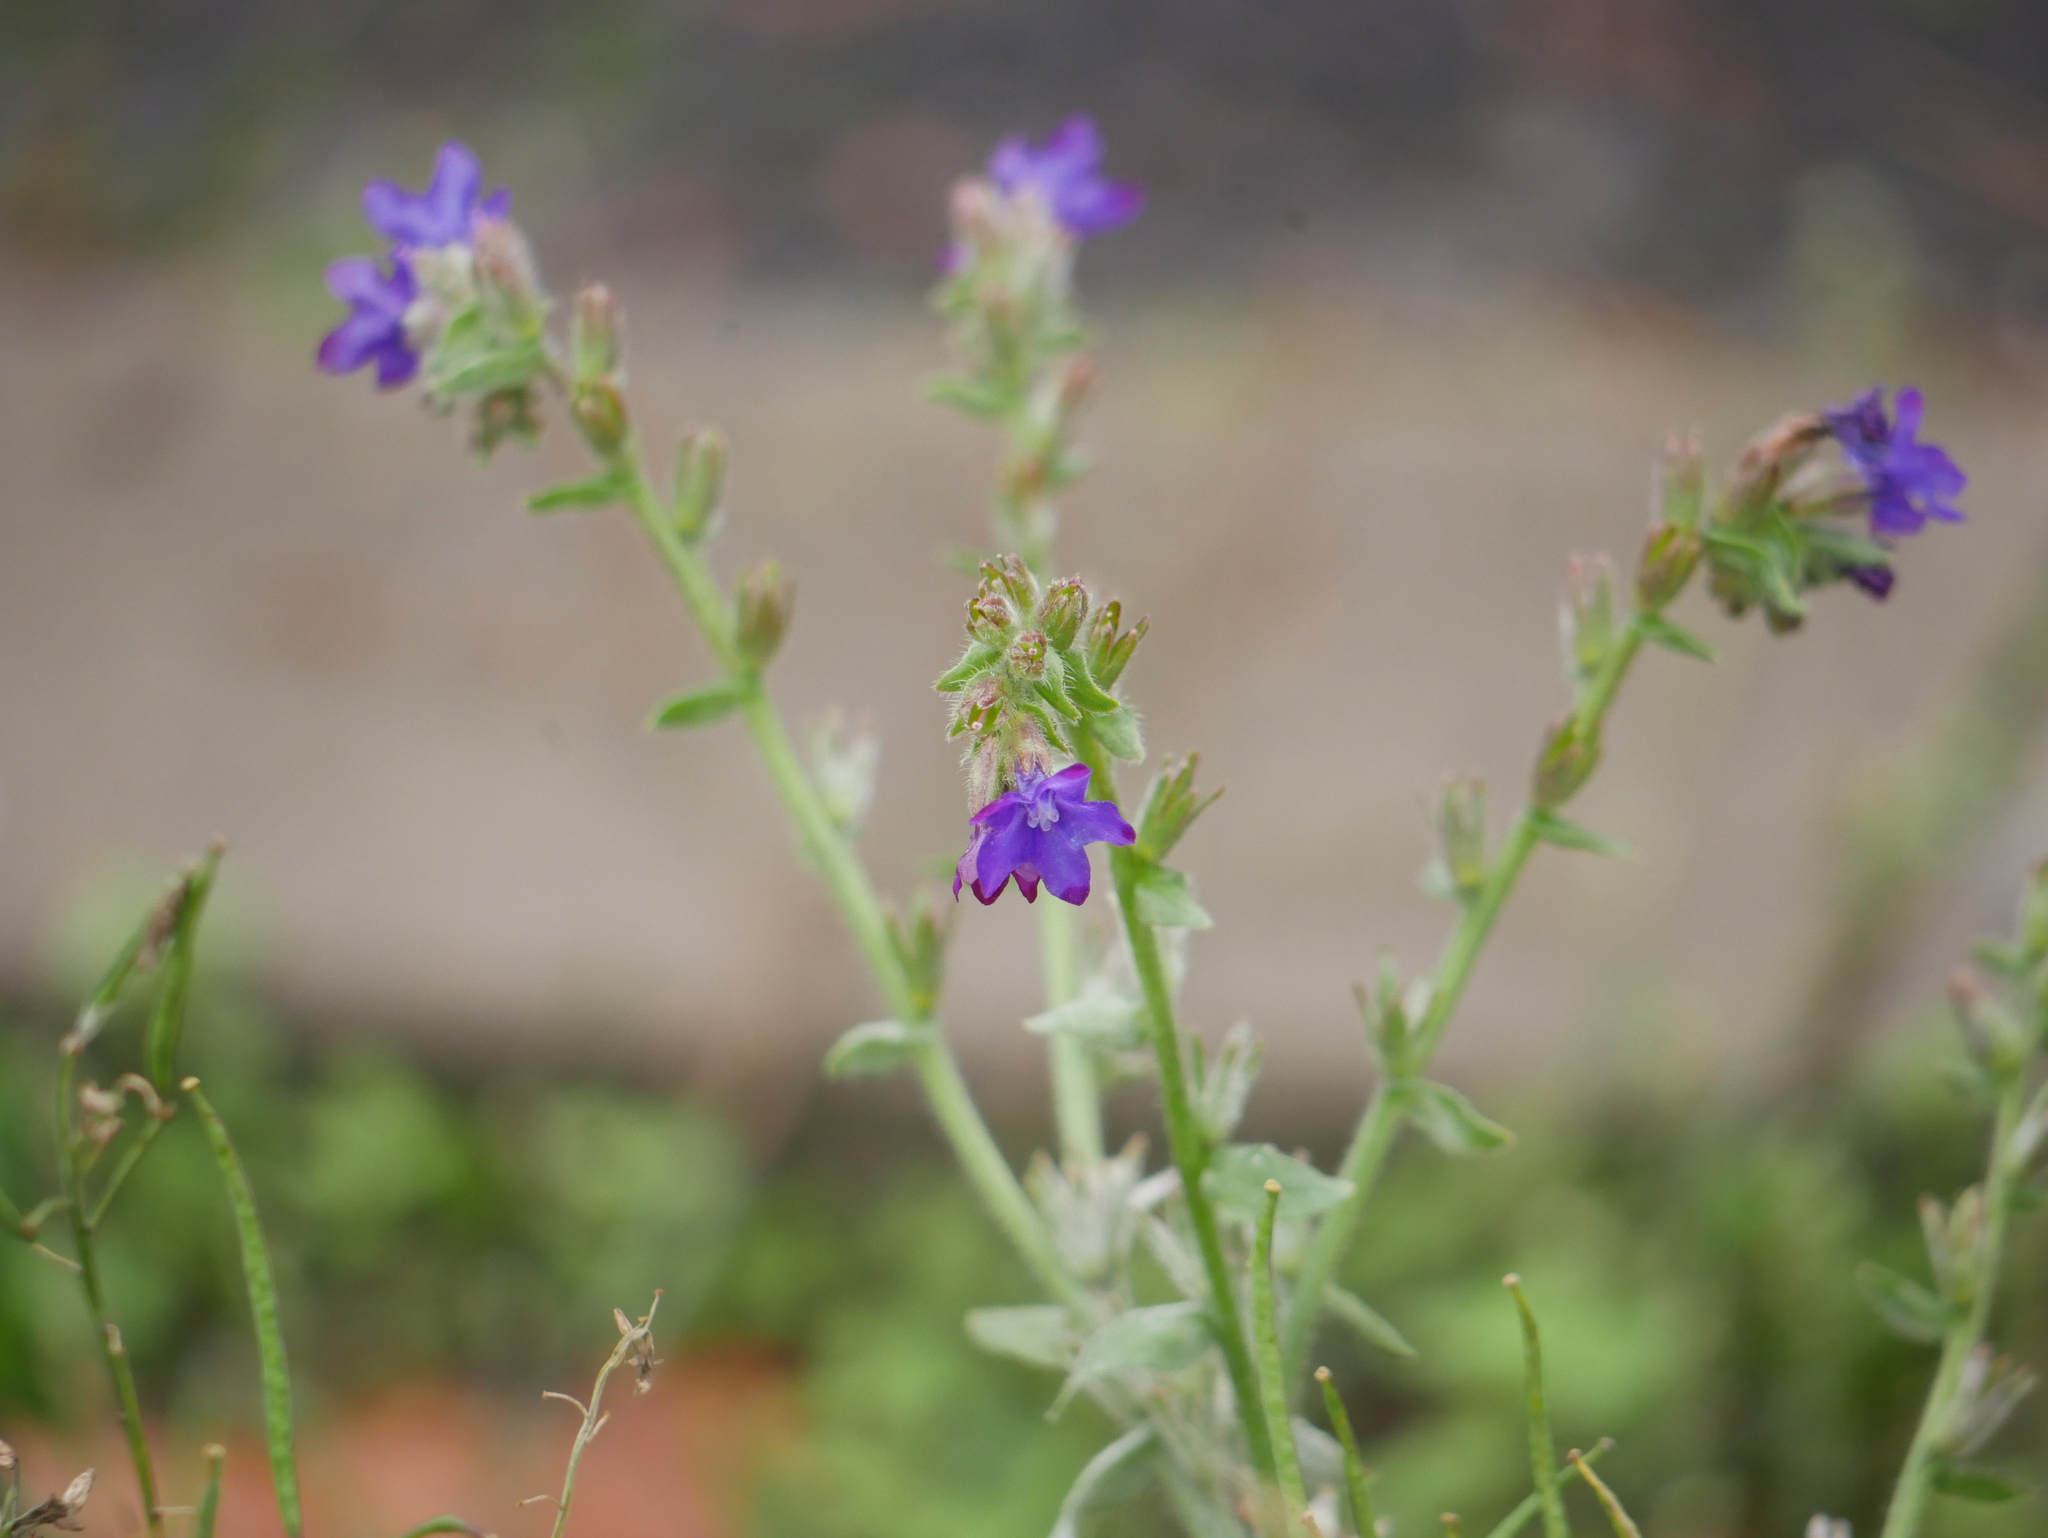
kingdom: Plantae
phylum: Tracheophyta
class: Magnoliopsida
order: Boraginales
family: Boraginaceae
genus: Anchusa
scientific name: Anchusa officinalis
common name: Alkanet
